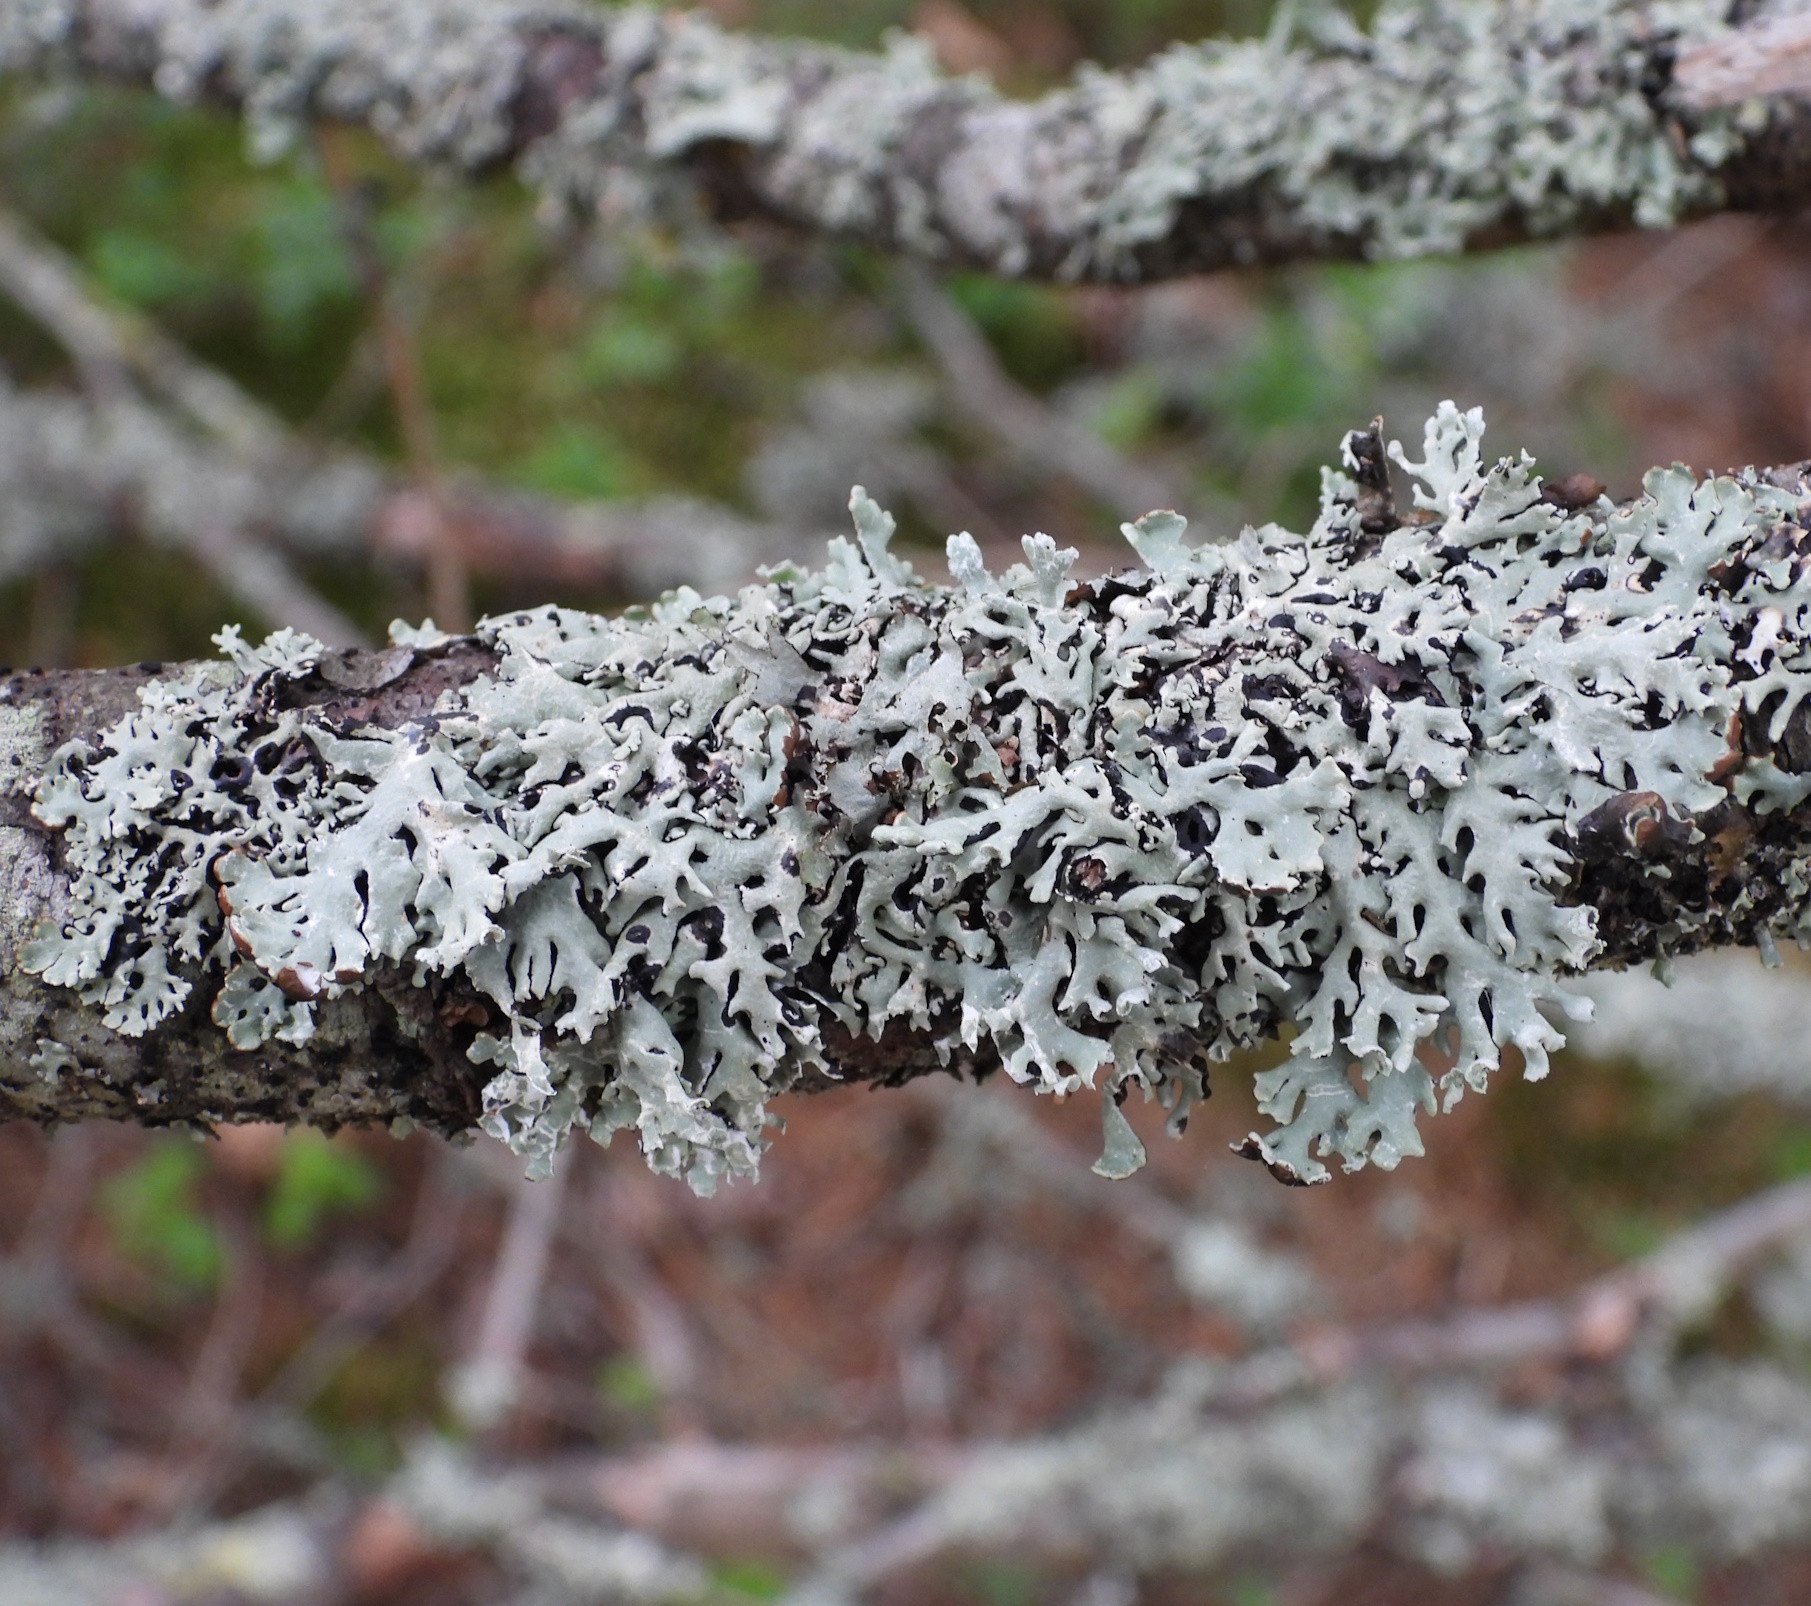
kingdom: Fungi
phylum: Ascomycota
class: Lecanoromycetes
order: Lecanorales
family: Parmeliaceae
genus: Hypogymnia
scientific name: Hypogymnia physodes
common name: Dark crottle
